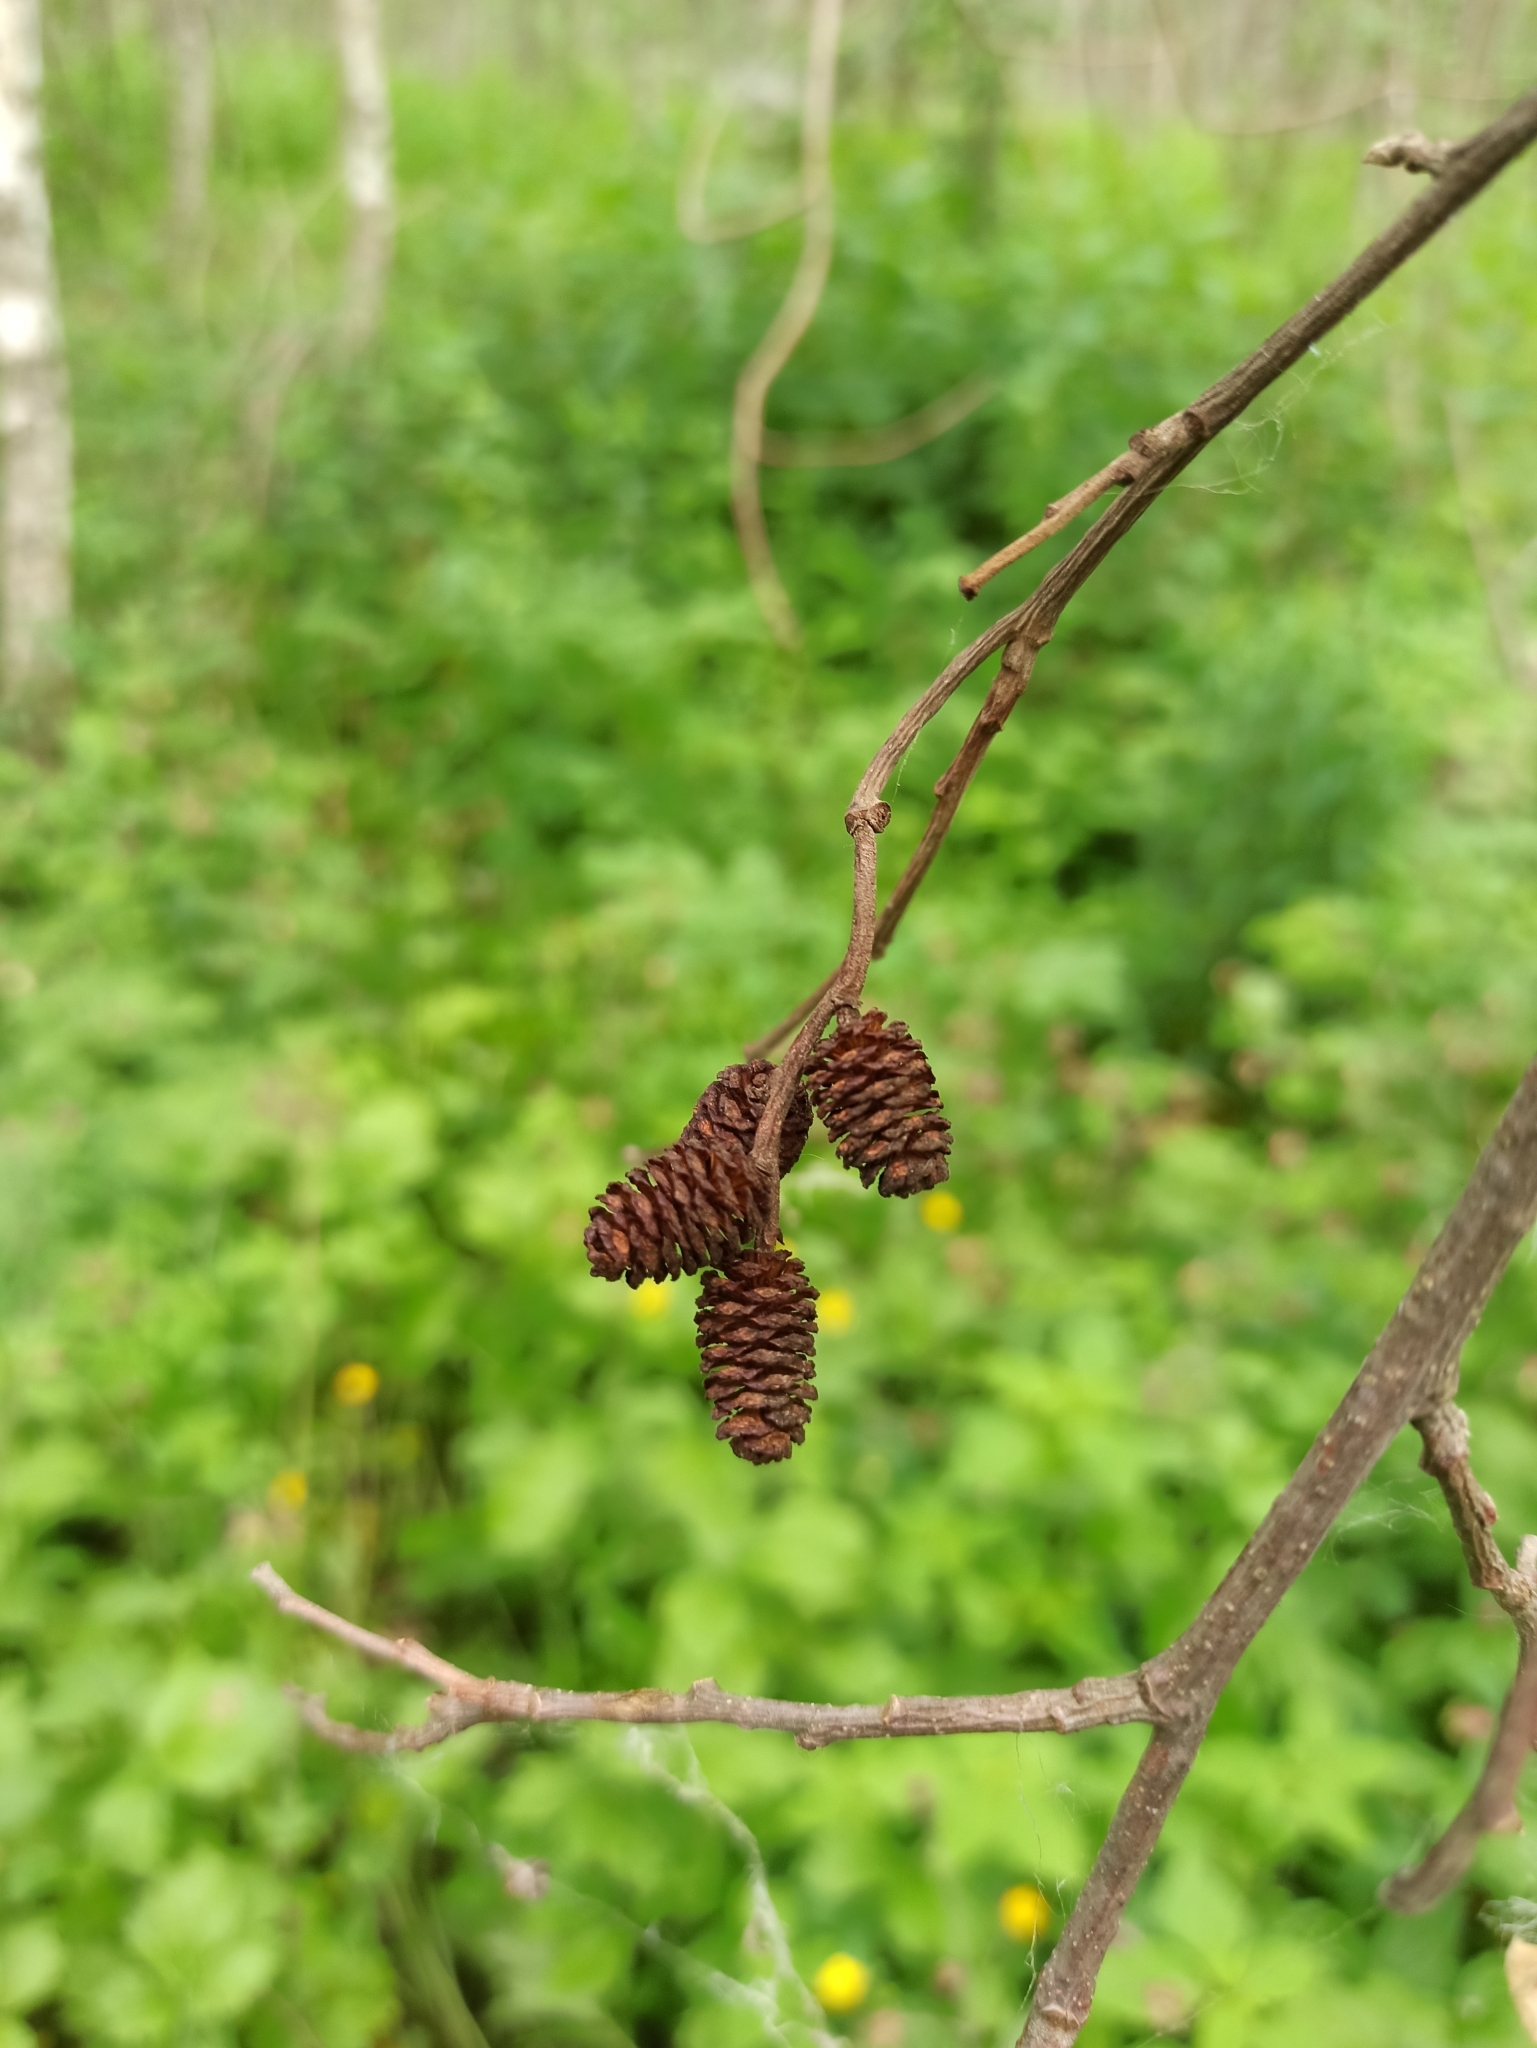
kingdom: Plantae
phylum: Tracheophyta
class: Magnoliopsida
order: Fagales
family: Betulaceae
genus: Alnus
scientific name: Alnus incana
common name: Grey alder
